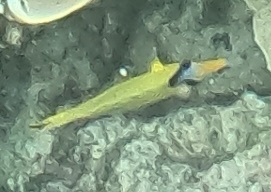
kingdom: Animalia
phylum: Chordata
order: Perciformes
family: Chaetodontidae
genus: Chaetodon
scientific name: Chaetodon rafflesii
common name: Latticed butterflyfish
